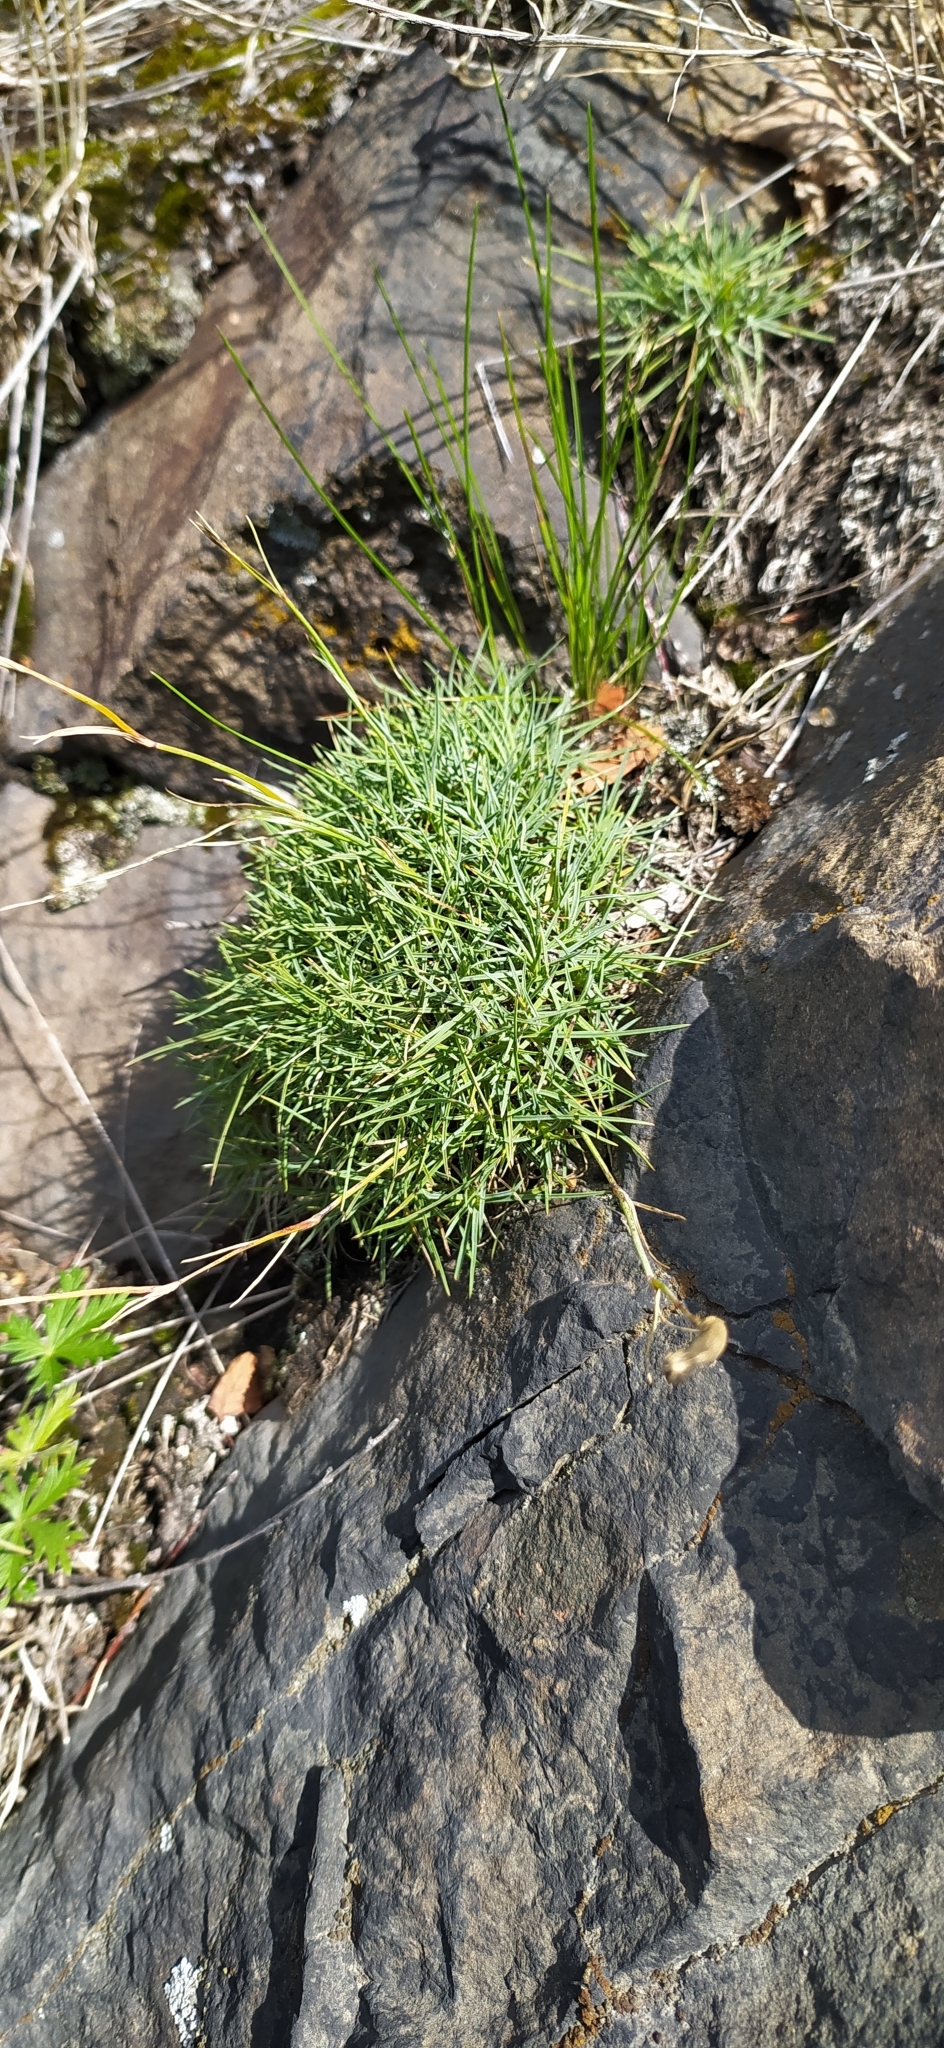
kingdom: Plantae
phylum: Tracheophyta
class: Magnoliopsida
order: Caryophyllales
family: Caryophyllaceae
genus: Dianthus
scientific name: Dianthus acicularis
